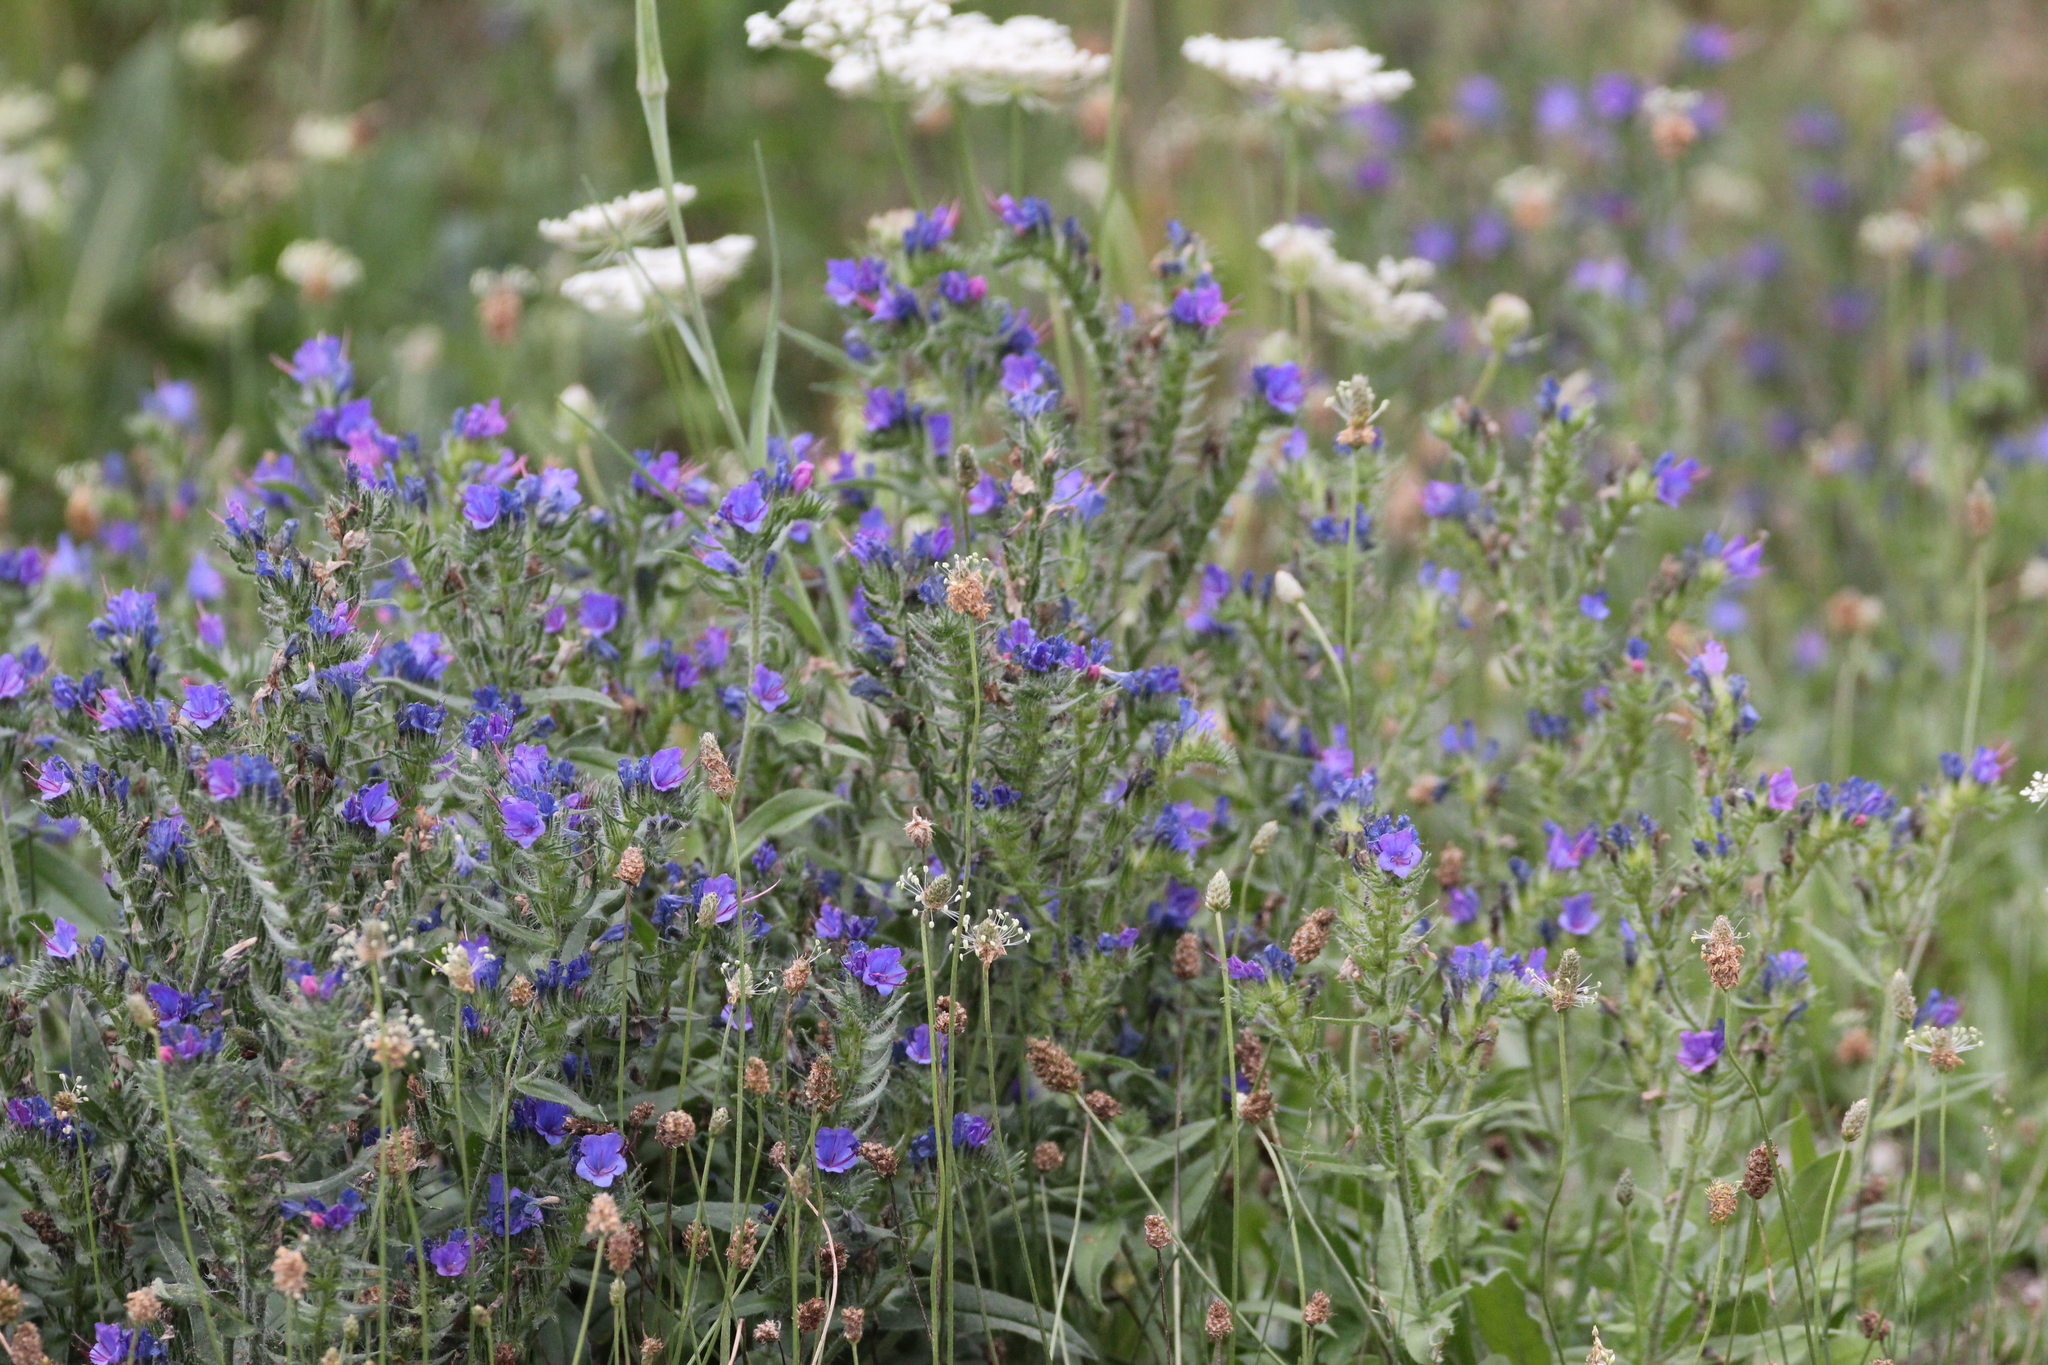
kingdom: Plantae
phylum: Tracheophyta
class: Magnoliopsida
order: Boraginales
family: Boraginaceae
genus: Echium
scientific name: Echium vulgare
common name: Common viper's bugloss
